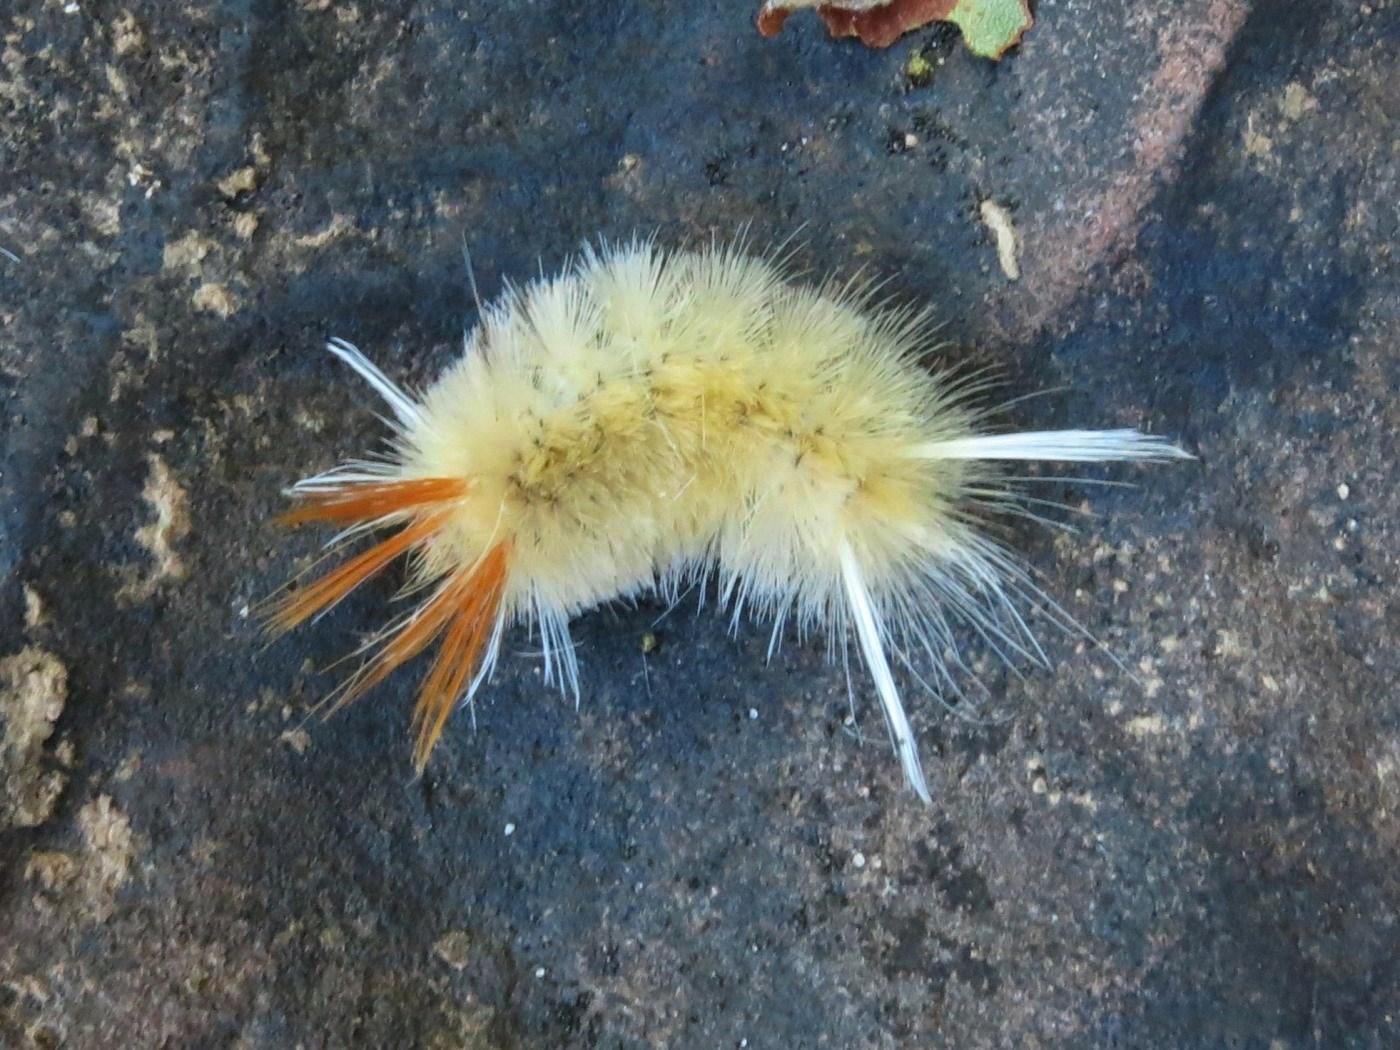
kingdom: Animalia
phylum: Arthropoda
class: Insecta
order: Lepidoptera
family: Erebidae
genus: Halysidota
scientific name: Halysidota harrisii
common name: Sycamore tussock moth
